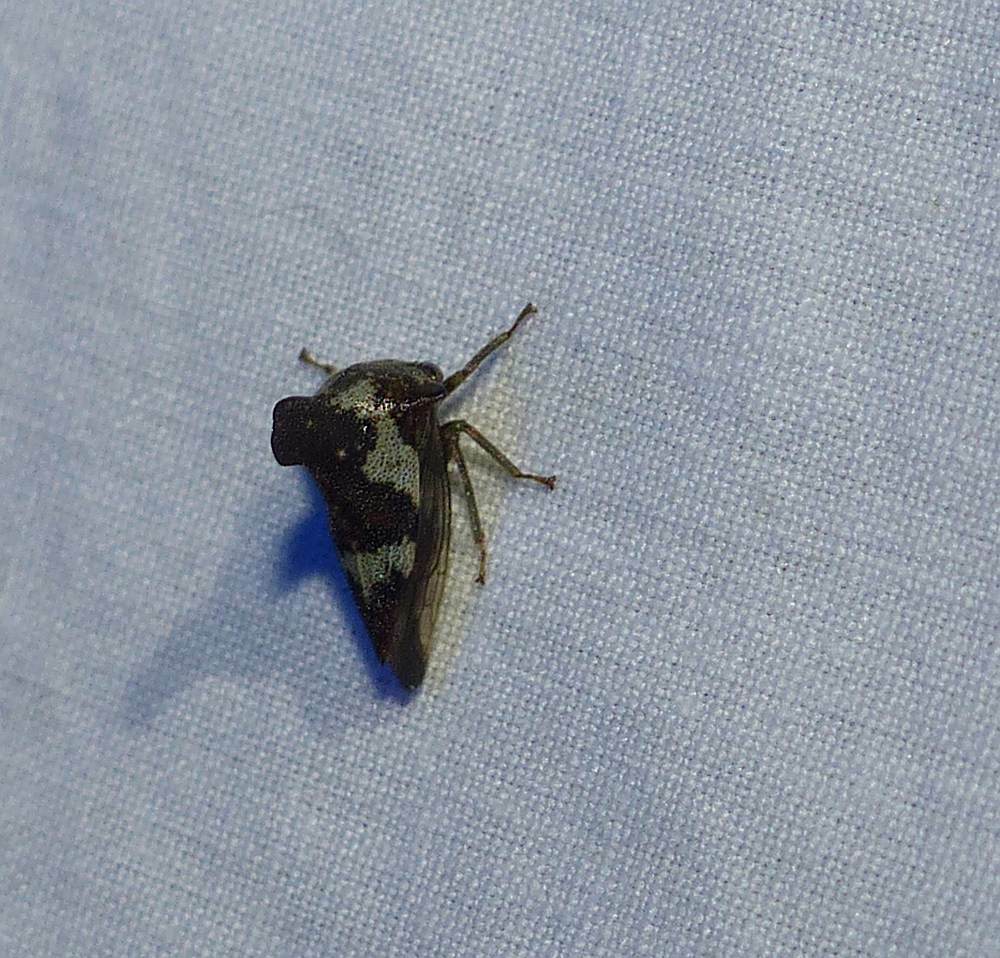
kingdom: Animalia
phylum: Arthropoda
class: Insecta
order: Hemiptera
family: Membracidae
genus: Glossonotus
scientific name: Glossonotus crataegi
